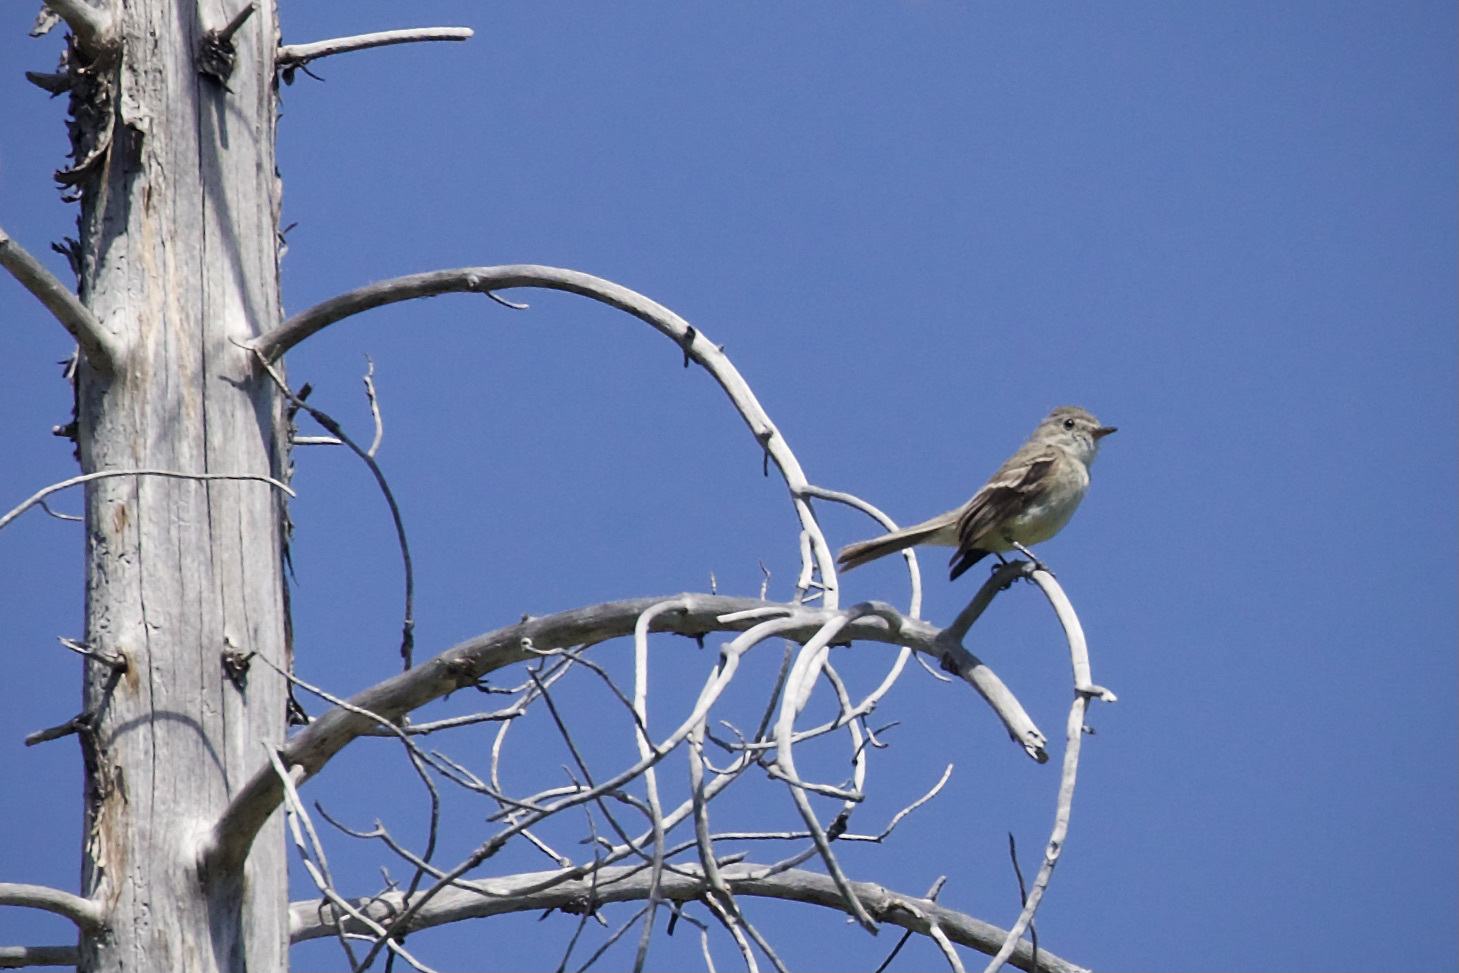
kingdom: Animalia
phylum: Chordata
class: Aves
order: Passeriformes
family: Tyrannidae
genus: Empidonax
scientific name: Empidonax
